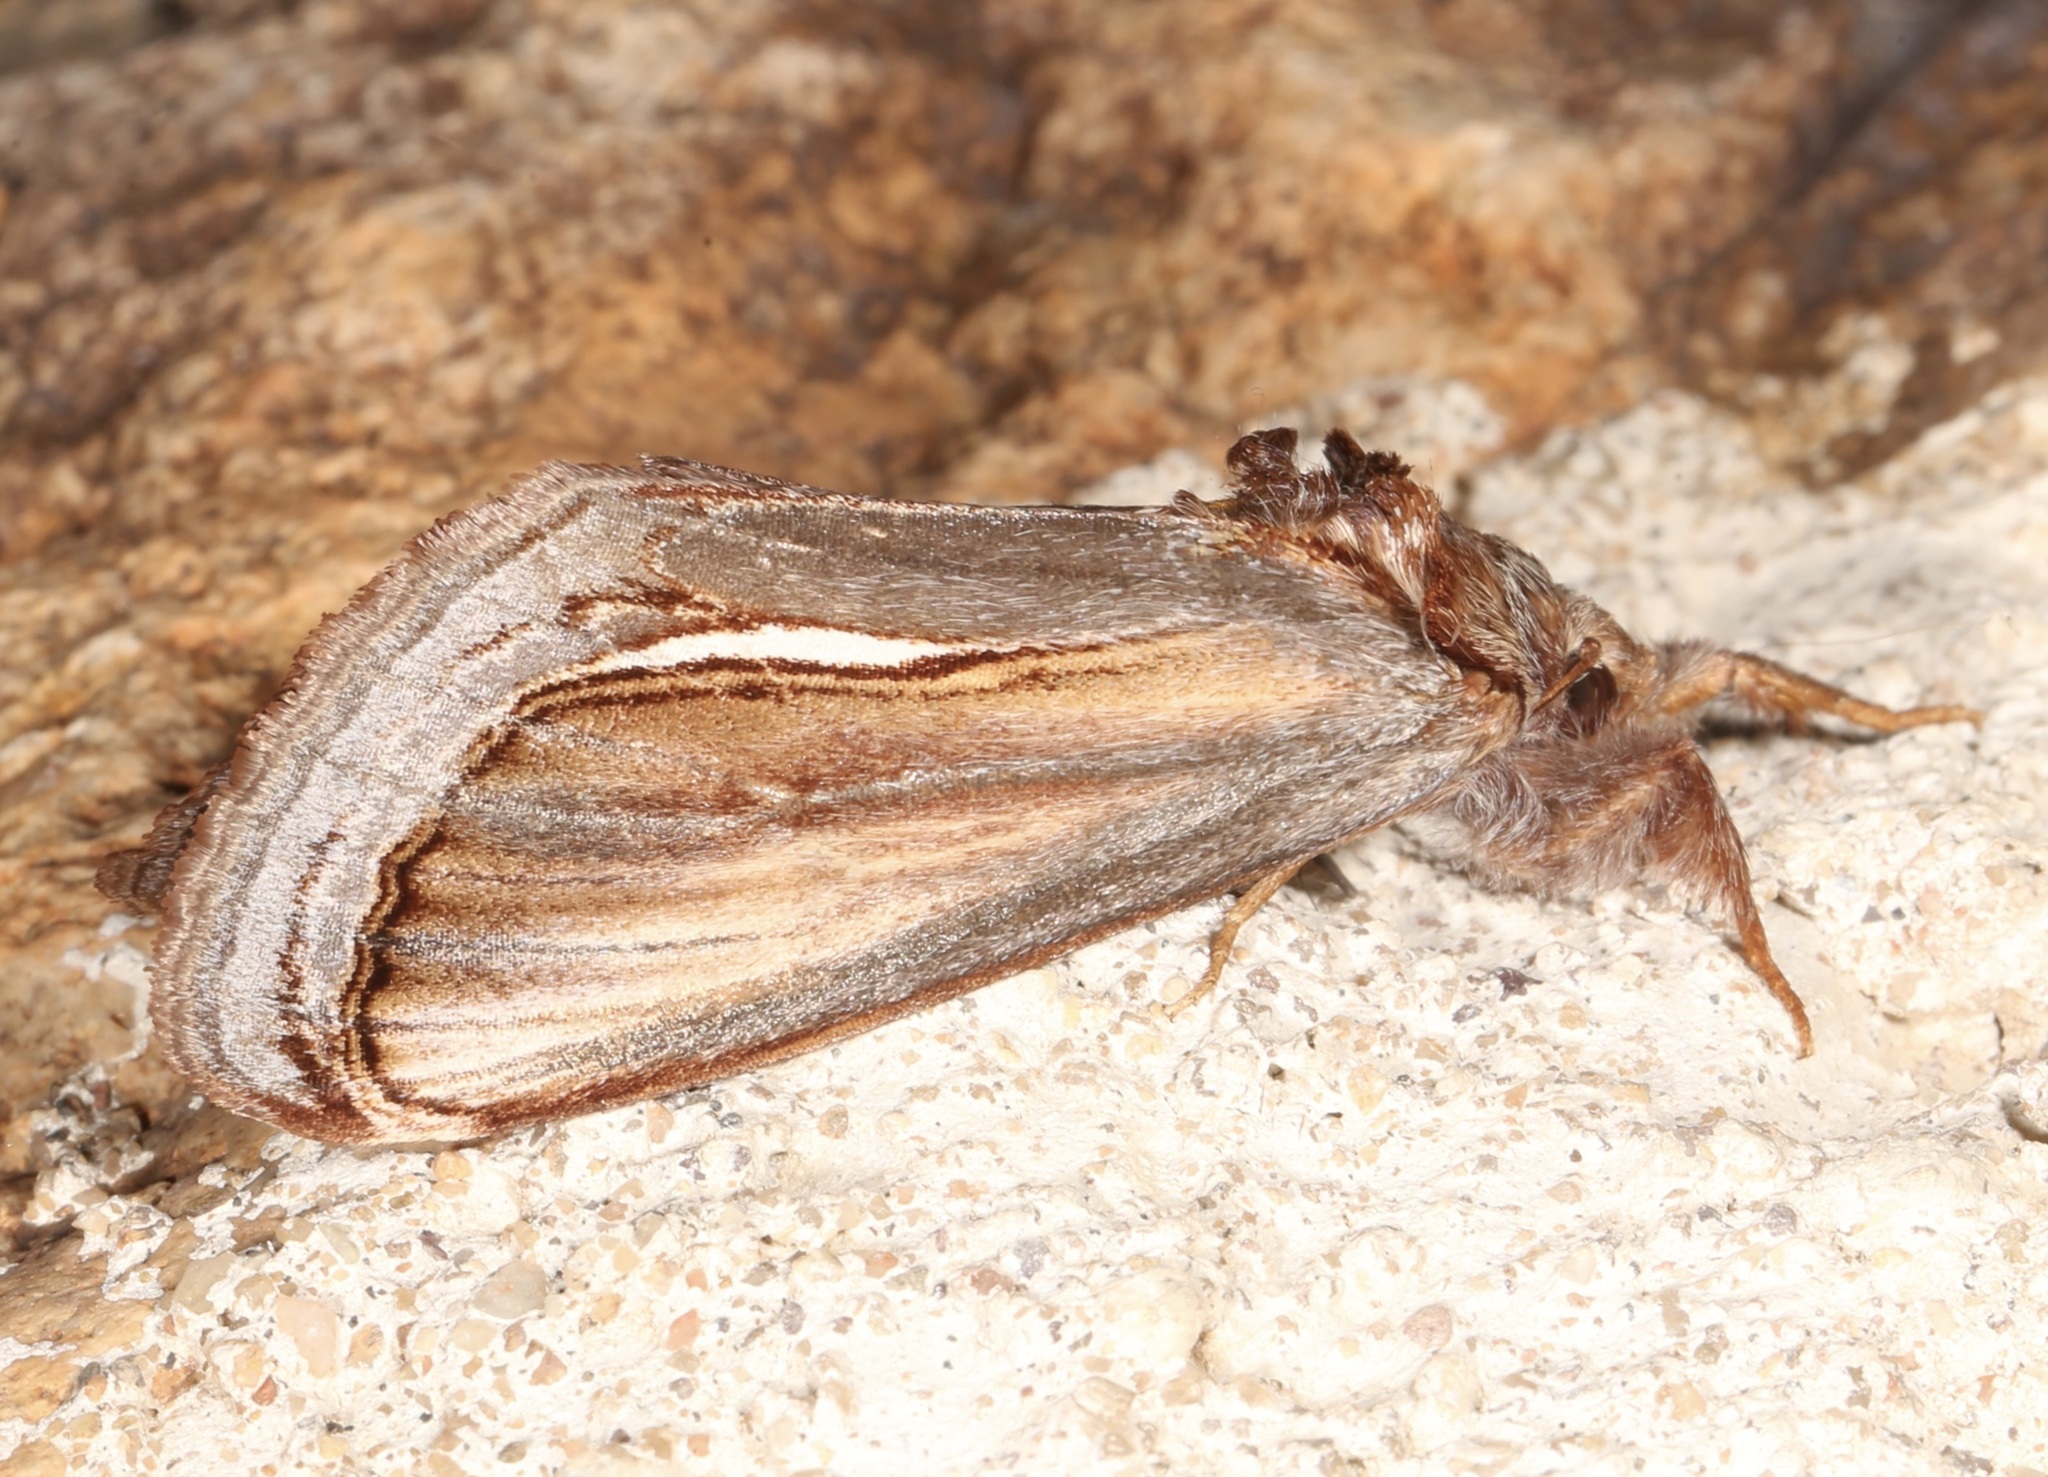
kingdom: Animalia
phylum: Arthropoda
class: Insecta
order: Lepidoptera
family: Noctuidae
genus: Gerrodes
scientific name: Gerrodes minatea
